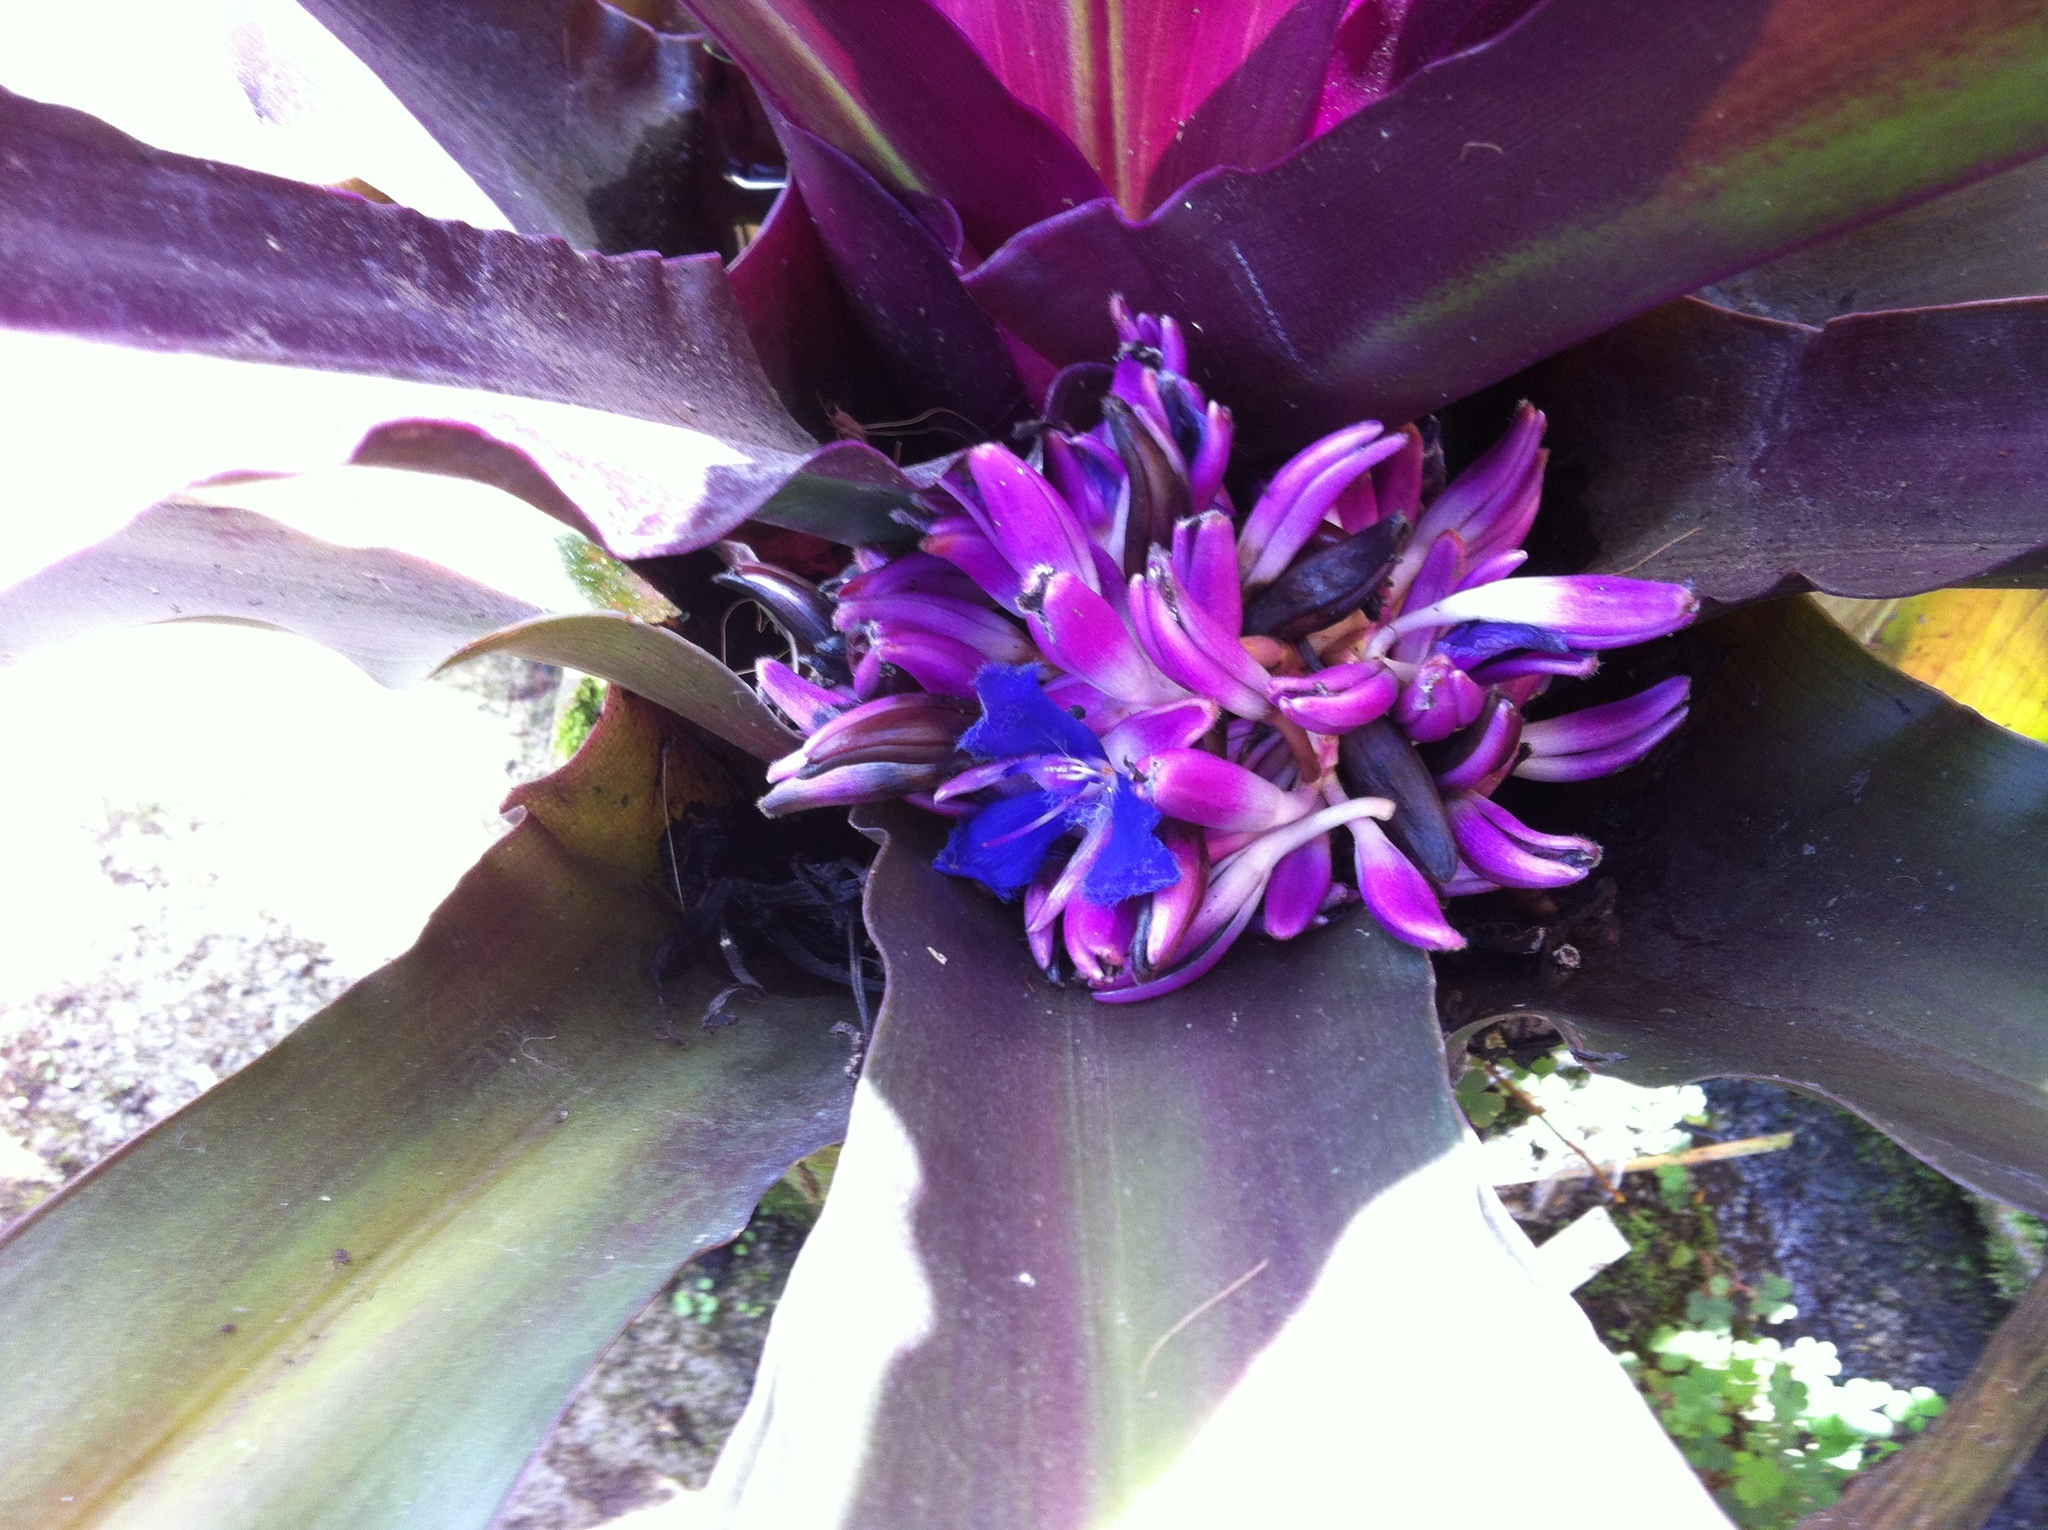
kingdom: Plantae
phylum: Tracheophyta
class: Liliopsida
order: Commelinales
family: Commelinaceae
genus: Cochliostema
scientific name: Cochliostema odoratissimum
